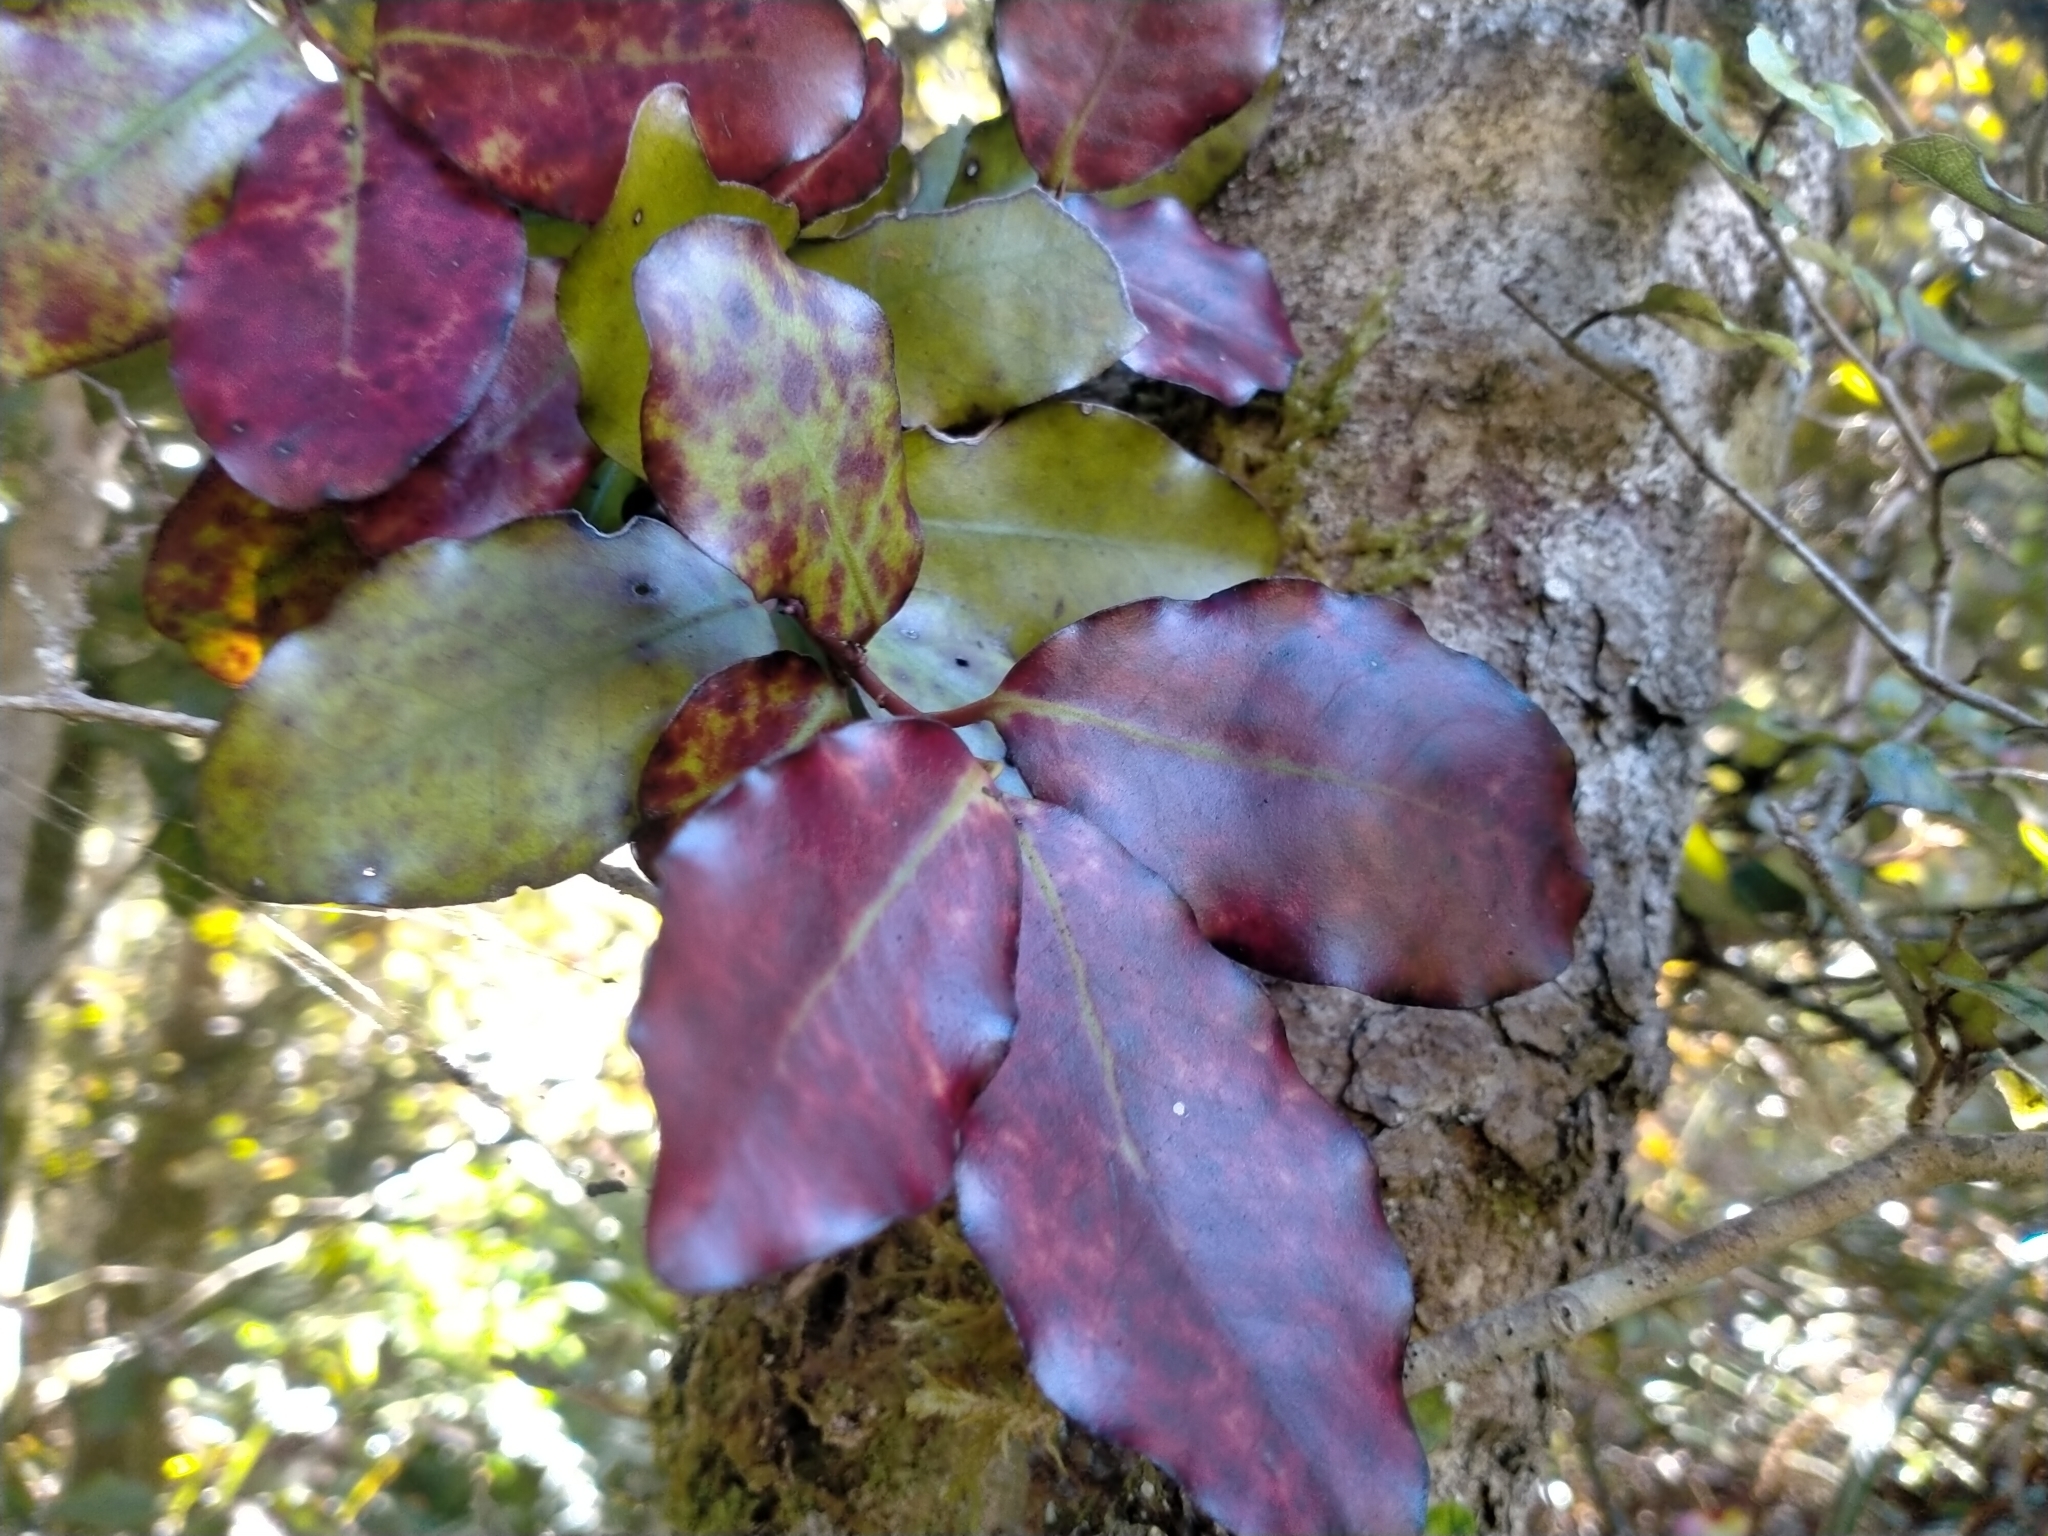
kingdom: Plantae
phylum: Tracheophyta
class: Magnoliopsida
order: Canellales
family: Winteraceae
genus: Pseudowintera
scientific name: Pseudowintera colorata
